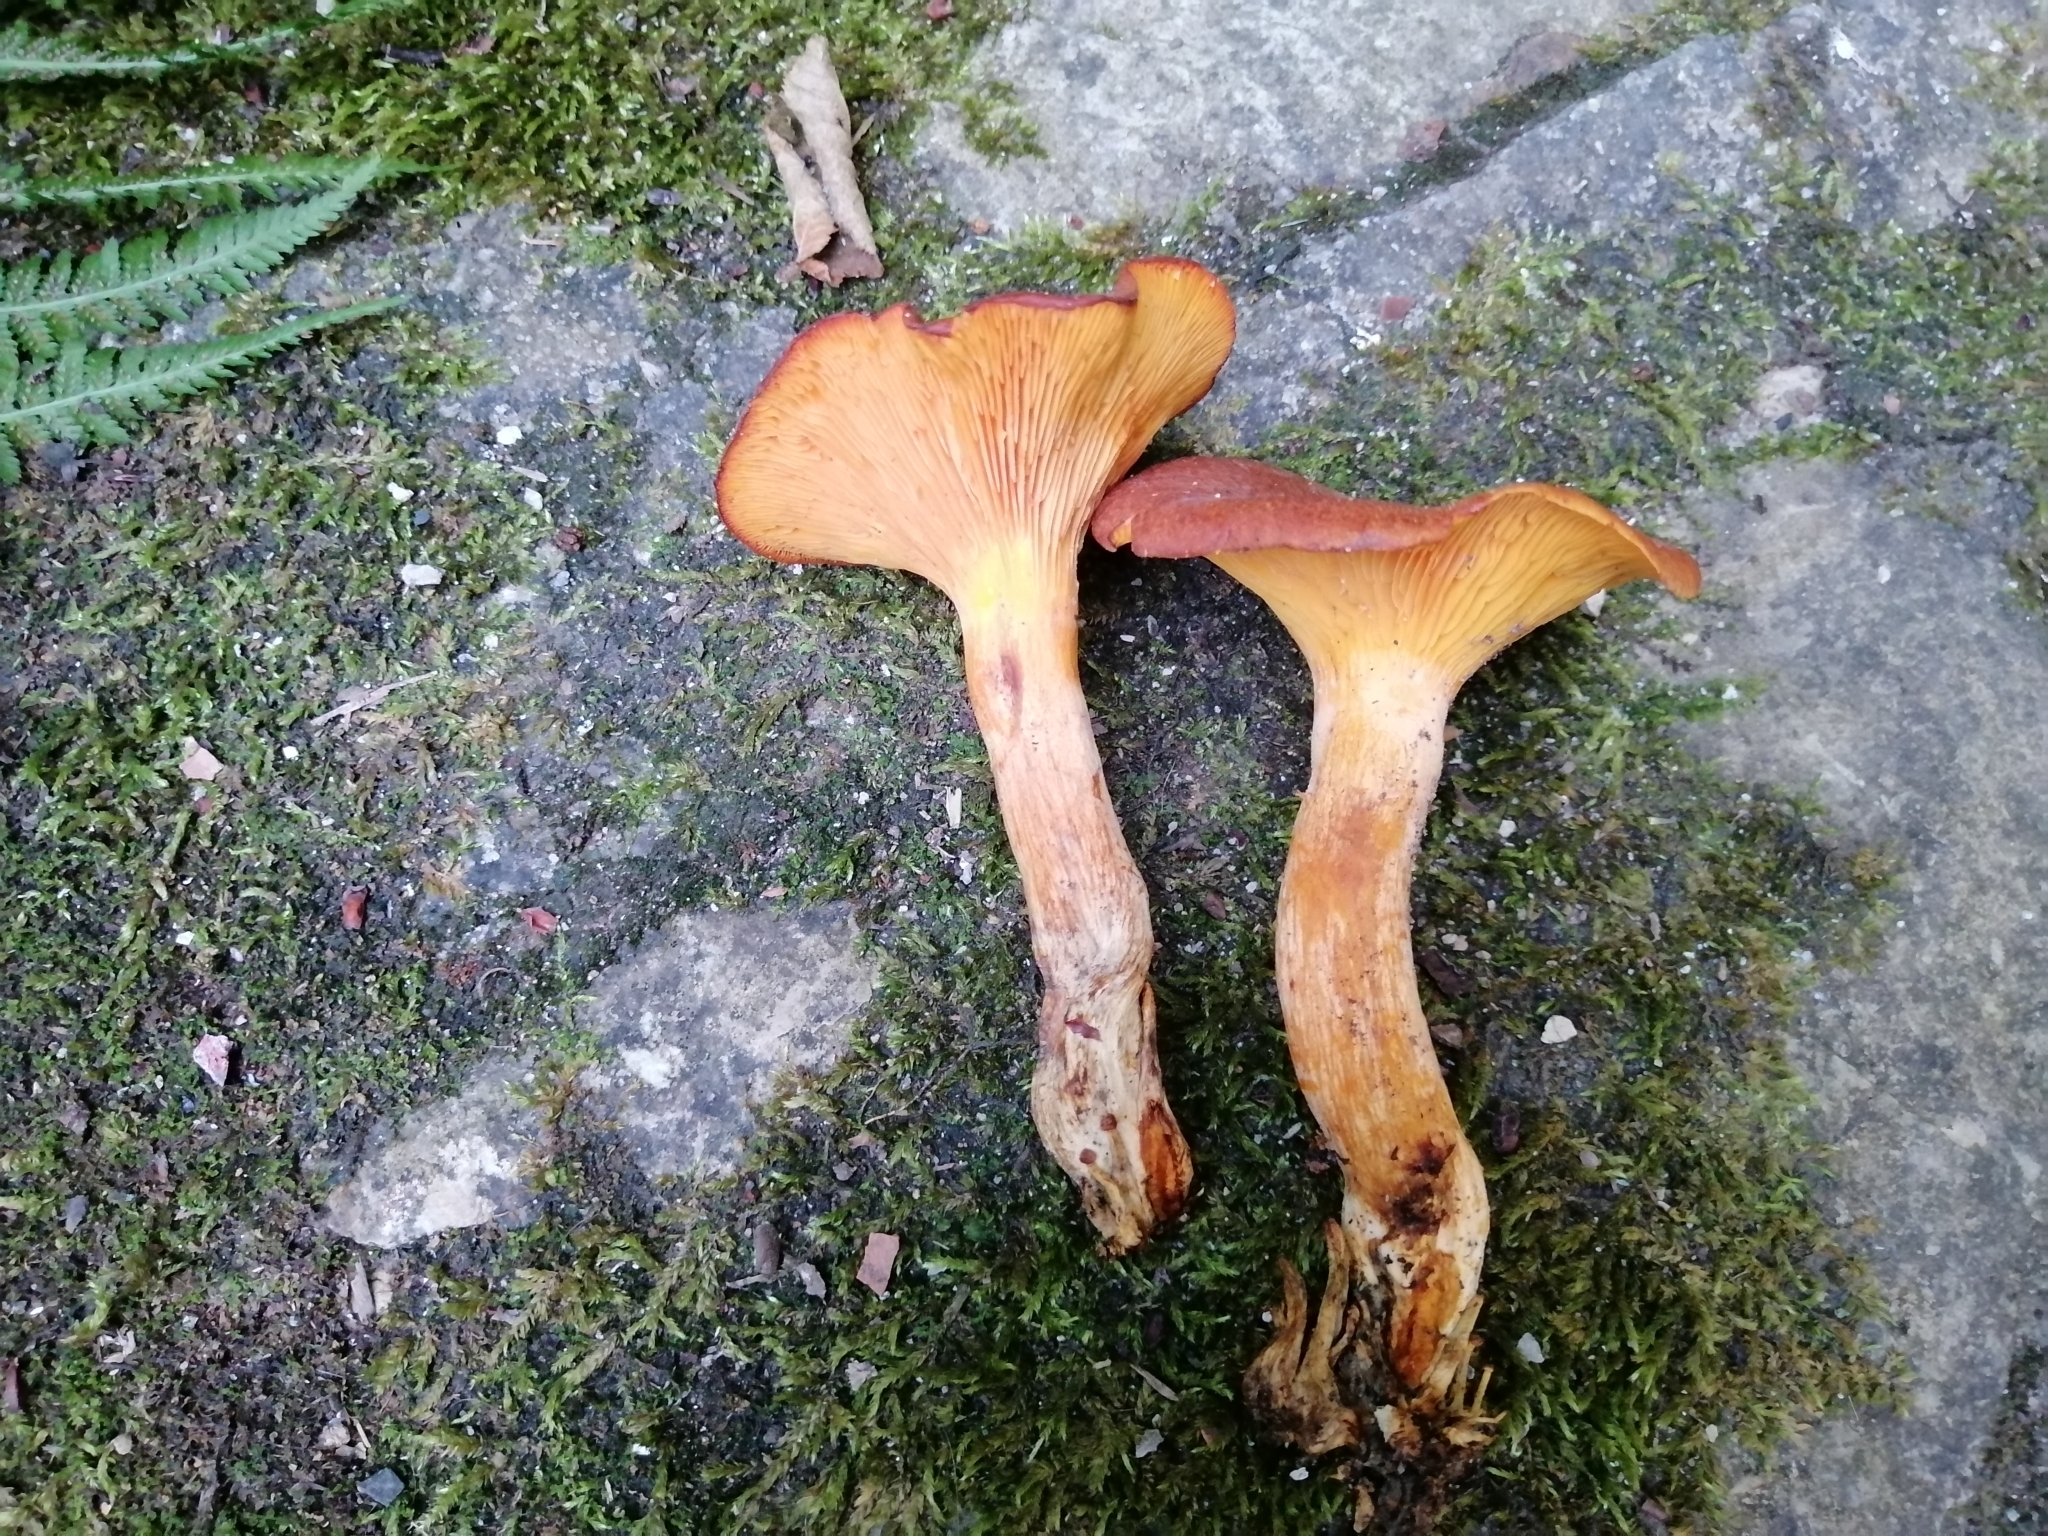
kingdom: Fungi
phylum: Basidiomycota
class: Agaricomycetes
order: Agaricales
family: Omphalotaceae
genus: Omphalotus
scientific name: Omphalotus olearius
